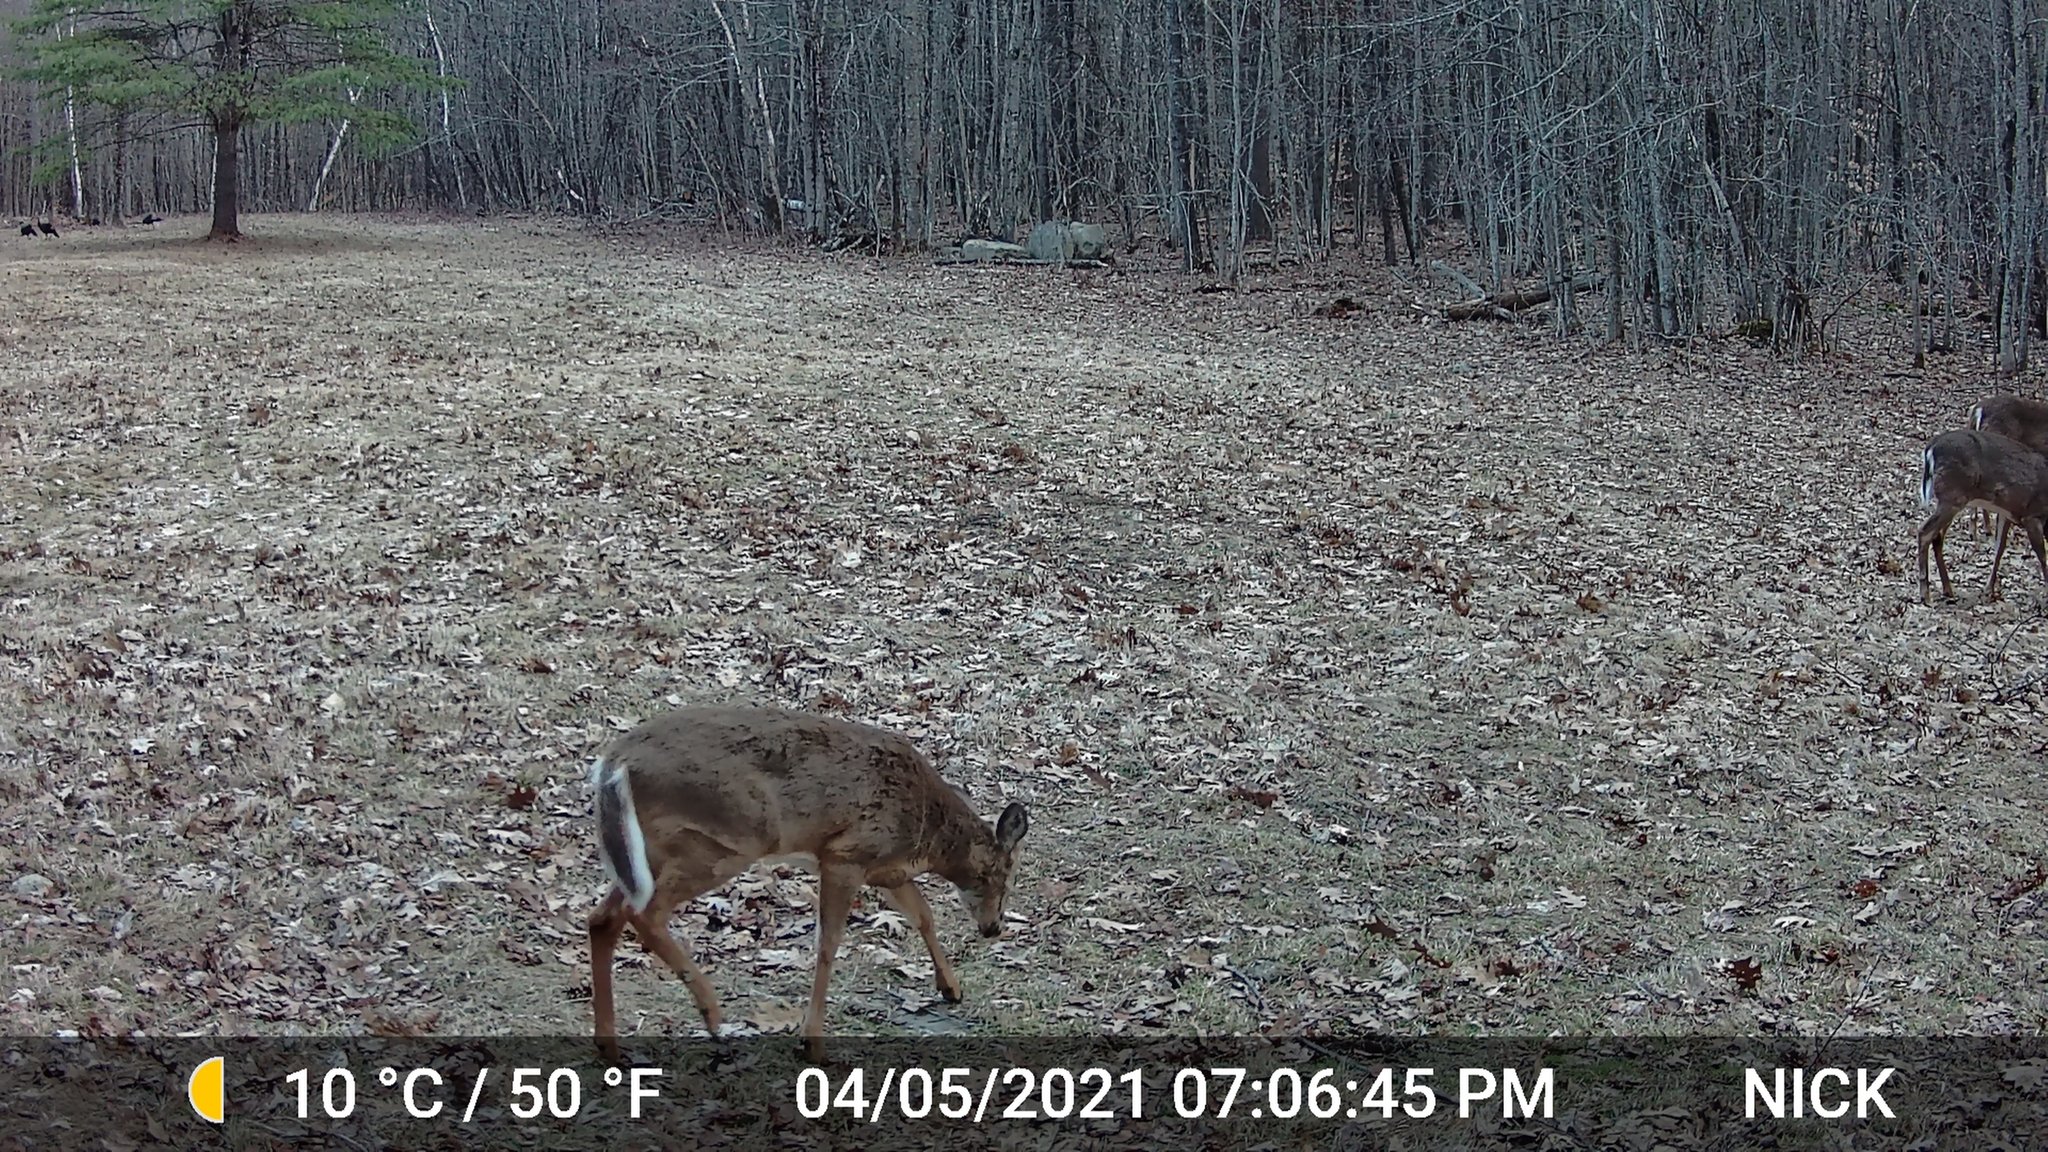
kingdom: Animalia
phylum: Chordata
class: Mammalia
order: Artiodactyla
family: Cervidae
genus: Odocoileus
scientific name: Odocoileus virginianus
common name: White-tailed deer
